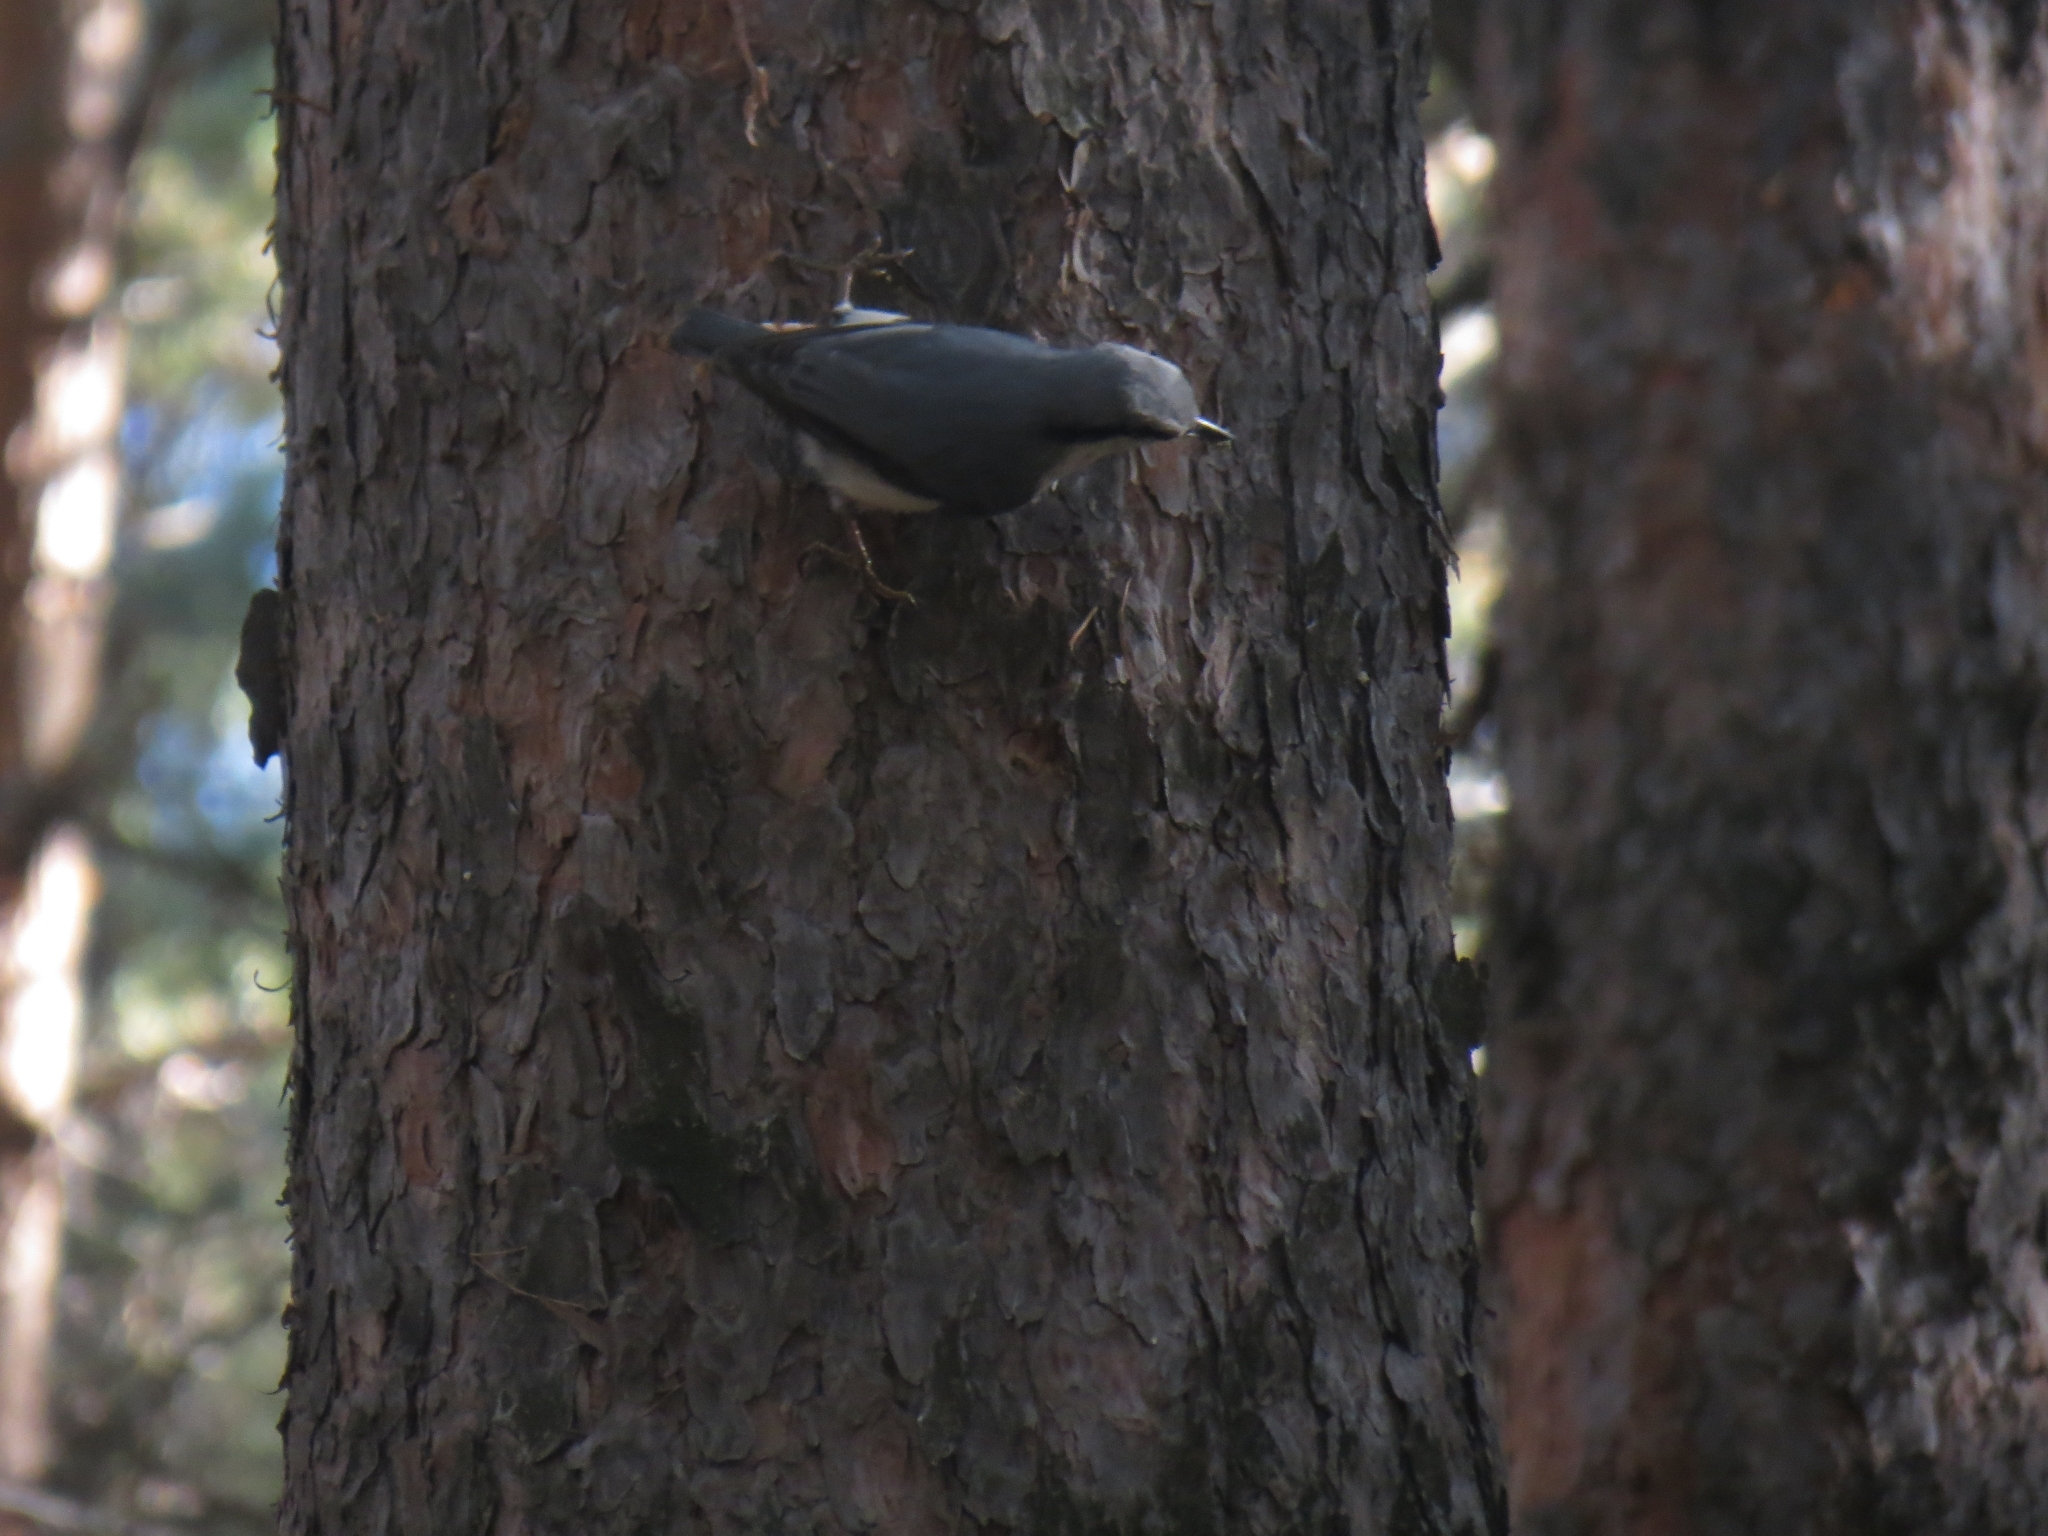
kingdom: Animalia
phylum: Chordata
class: Aves
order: Passeriformes
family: Sittidae
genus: Sitta
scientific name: Sitta europaea
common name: Eurasian nuthatch
